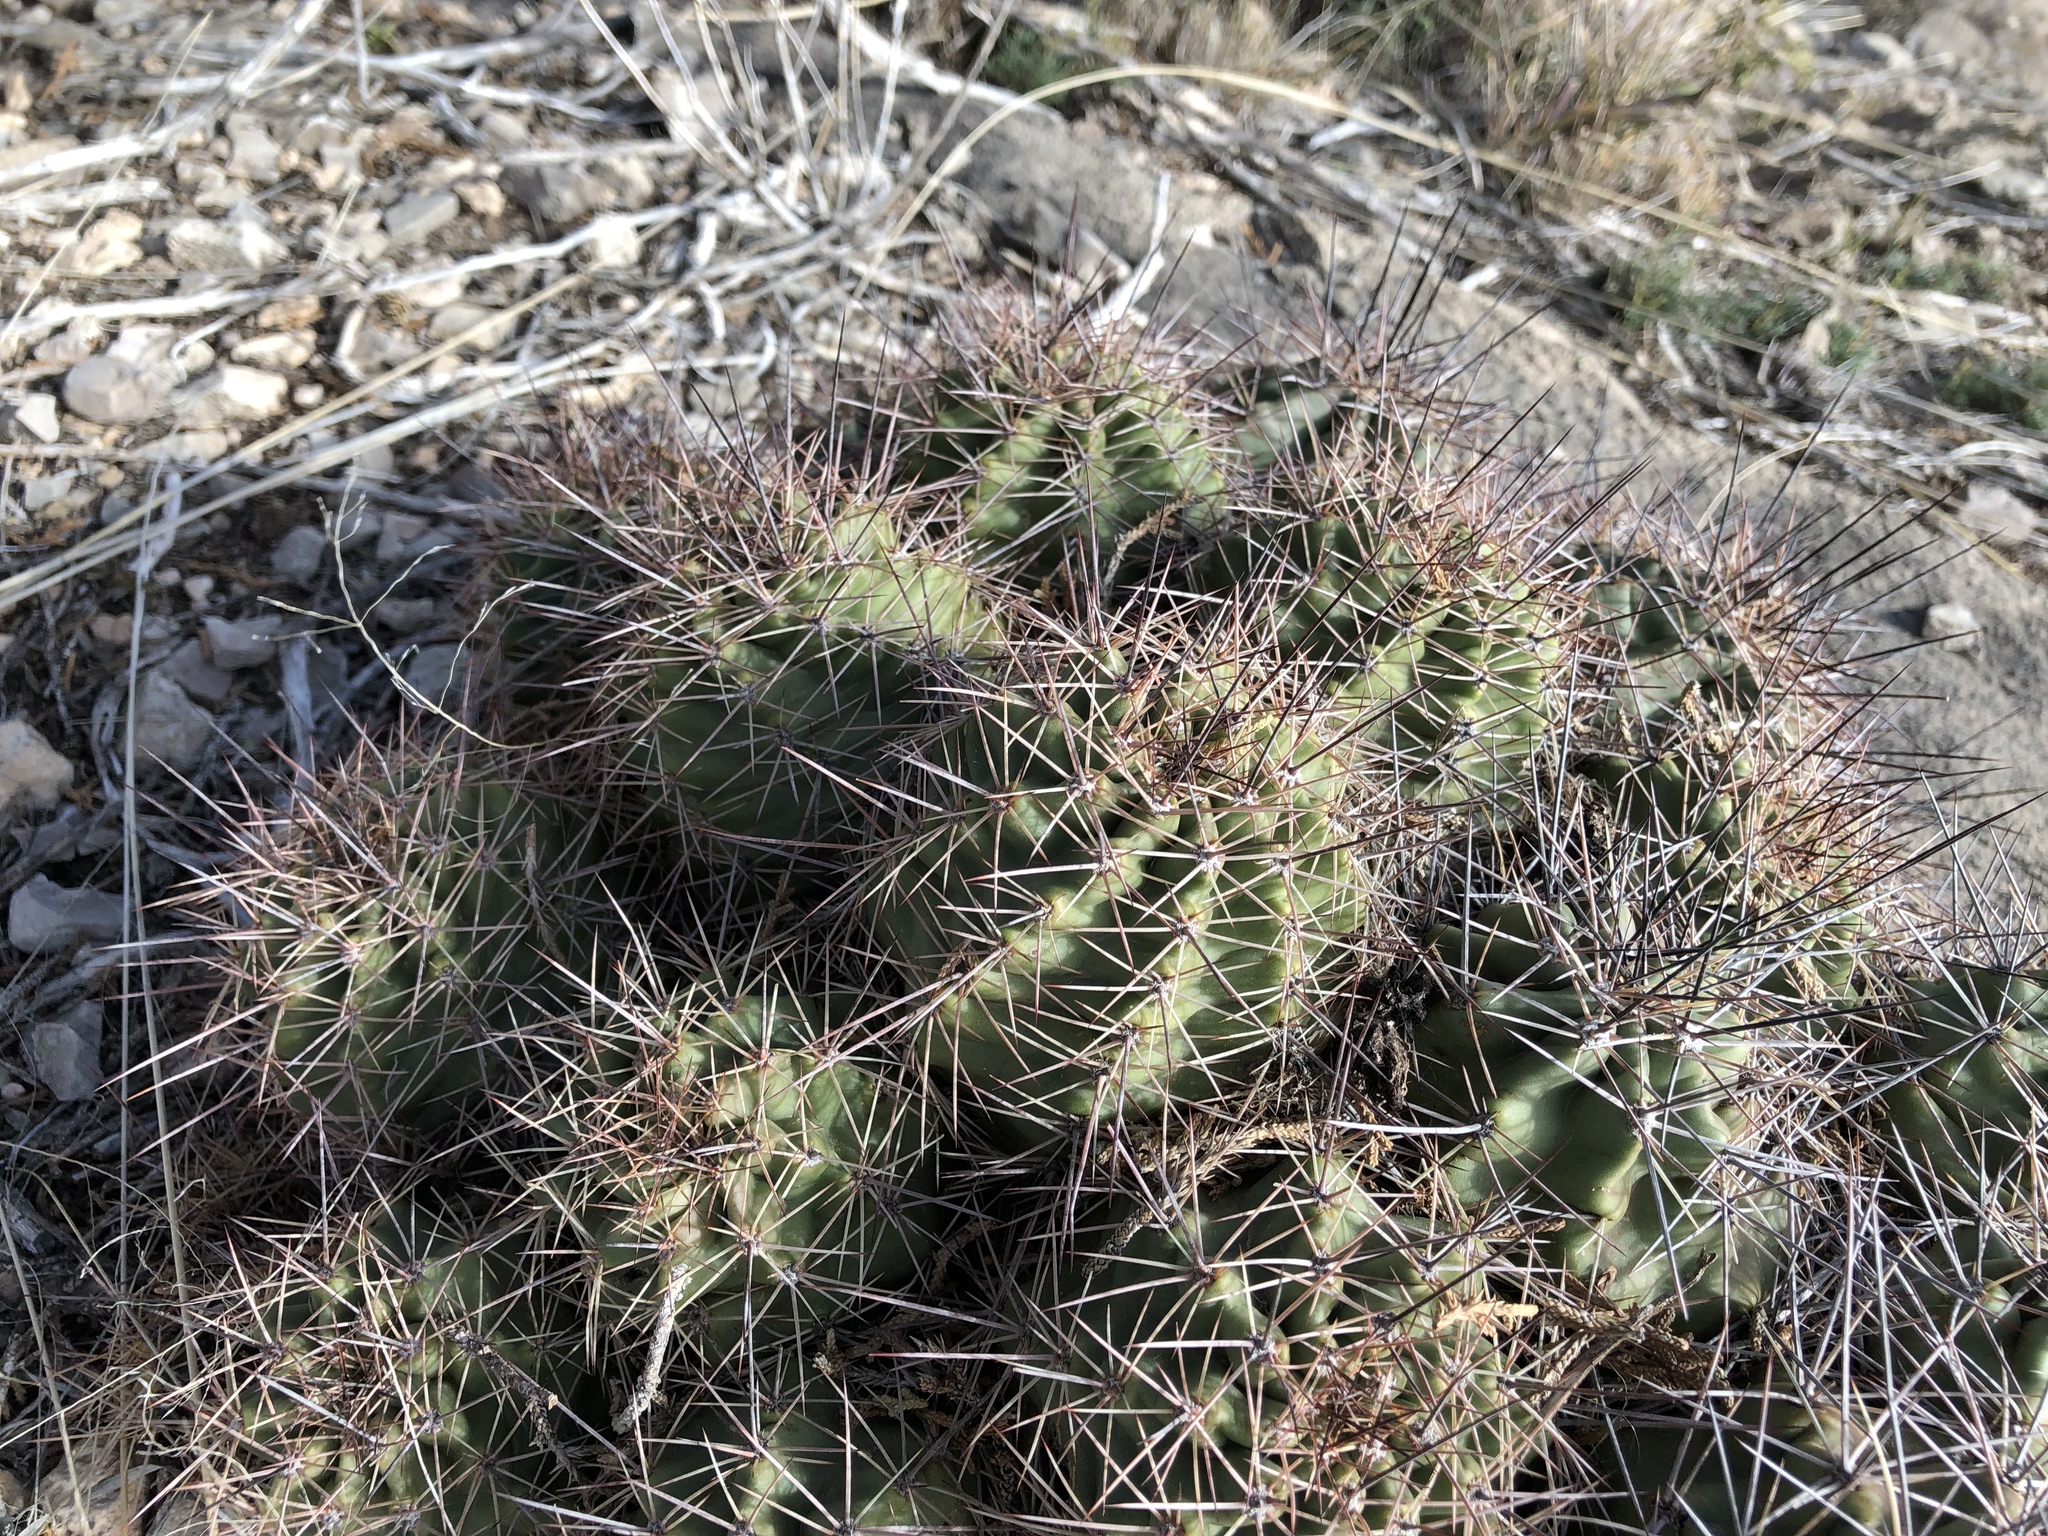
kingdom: Plantae
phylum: Tracheophyta
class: Magnoliopsida
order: Caryophyllales
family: Cactaceae
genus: Echinocereus
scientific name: Echinocereus coccineus
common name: Scarlet hedgehog cactus
